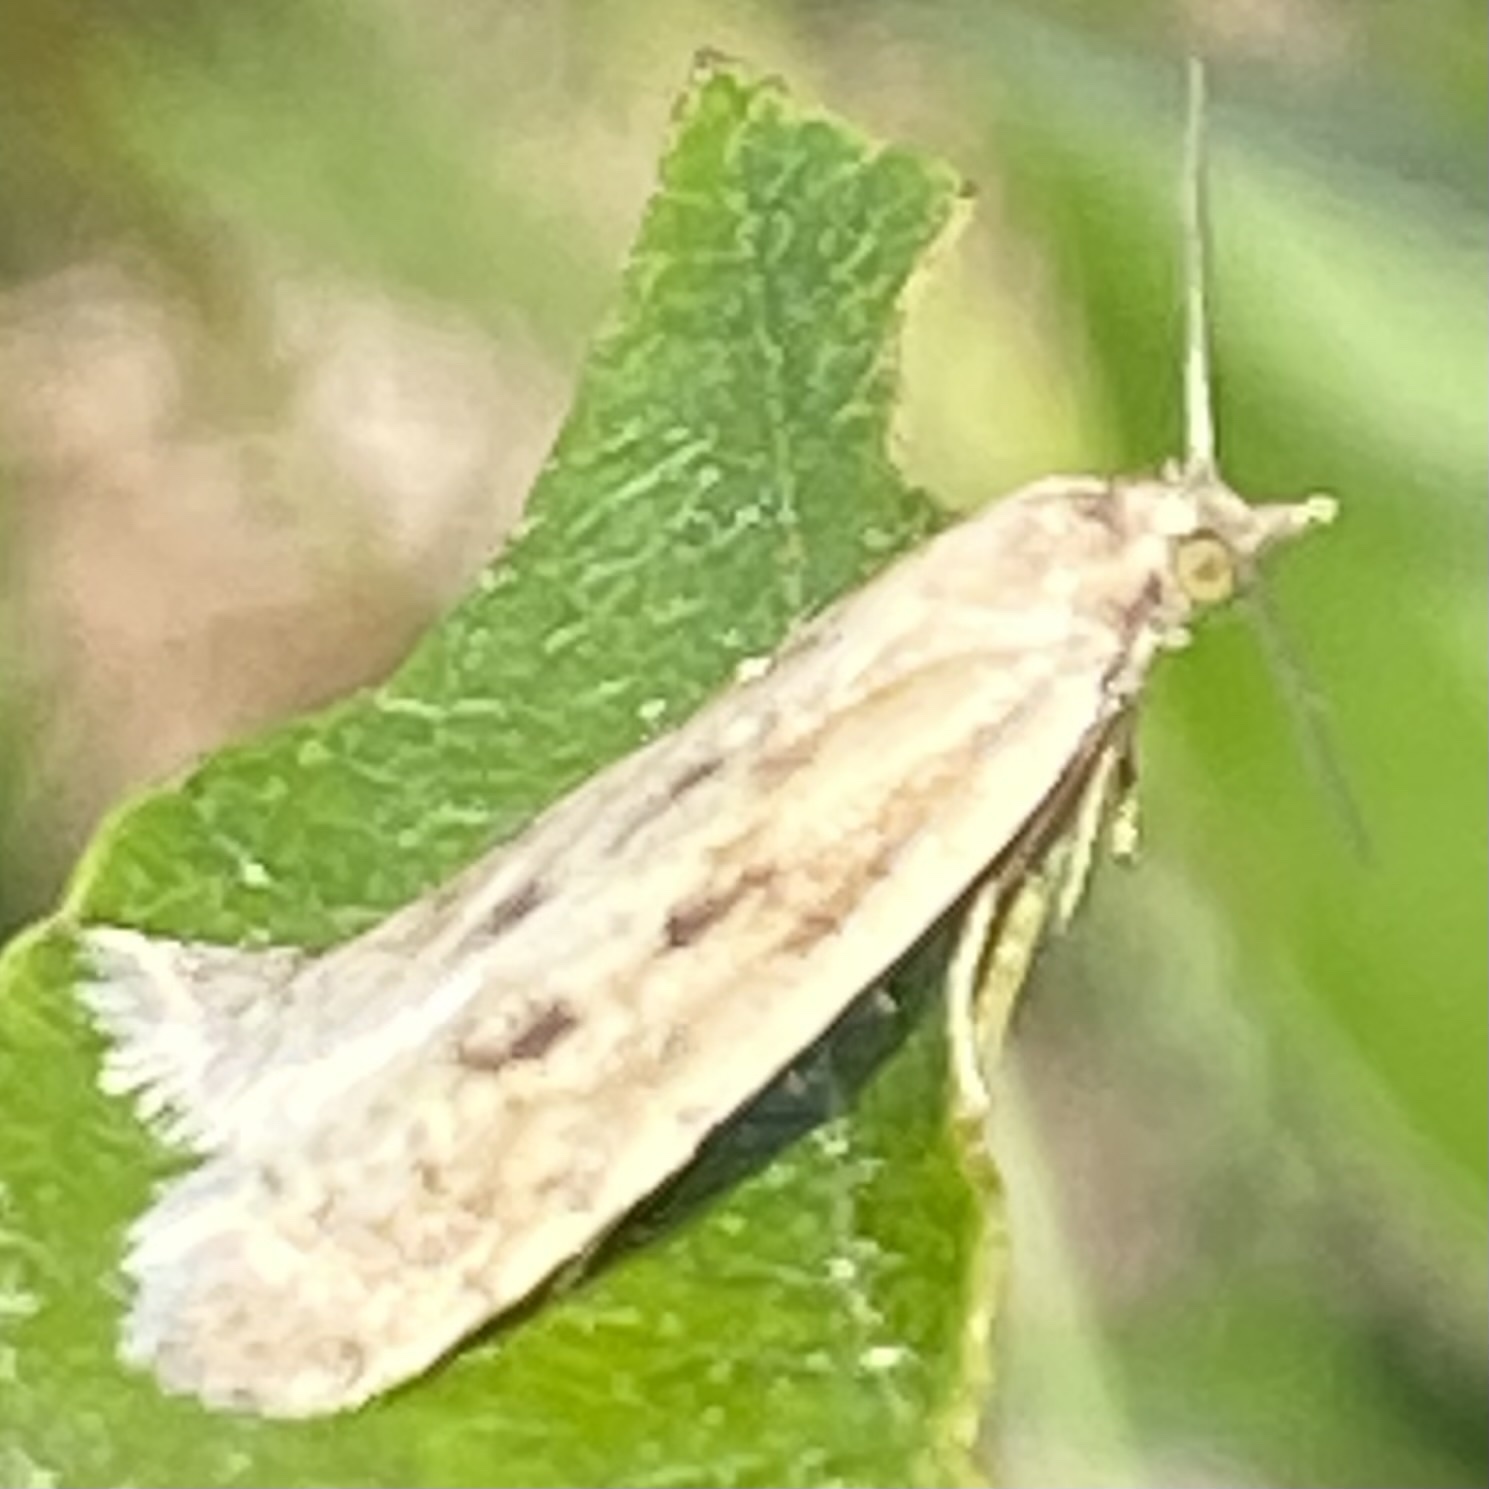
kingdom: Animalia
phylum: Arthropoda
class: Insecta
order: Lepidoptera
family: Tortricidae
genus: Eana
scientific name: Eana osseana
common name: Dotted shade
